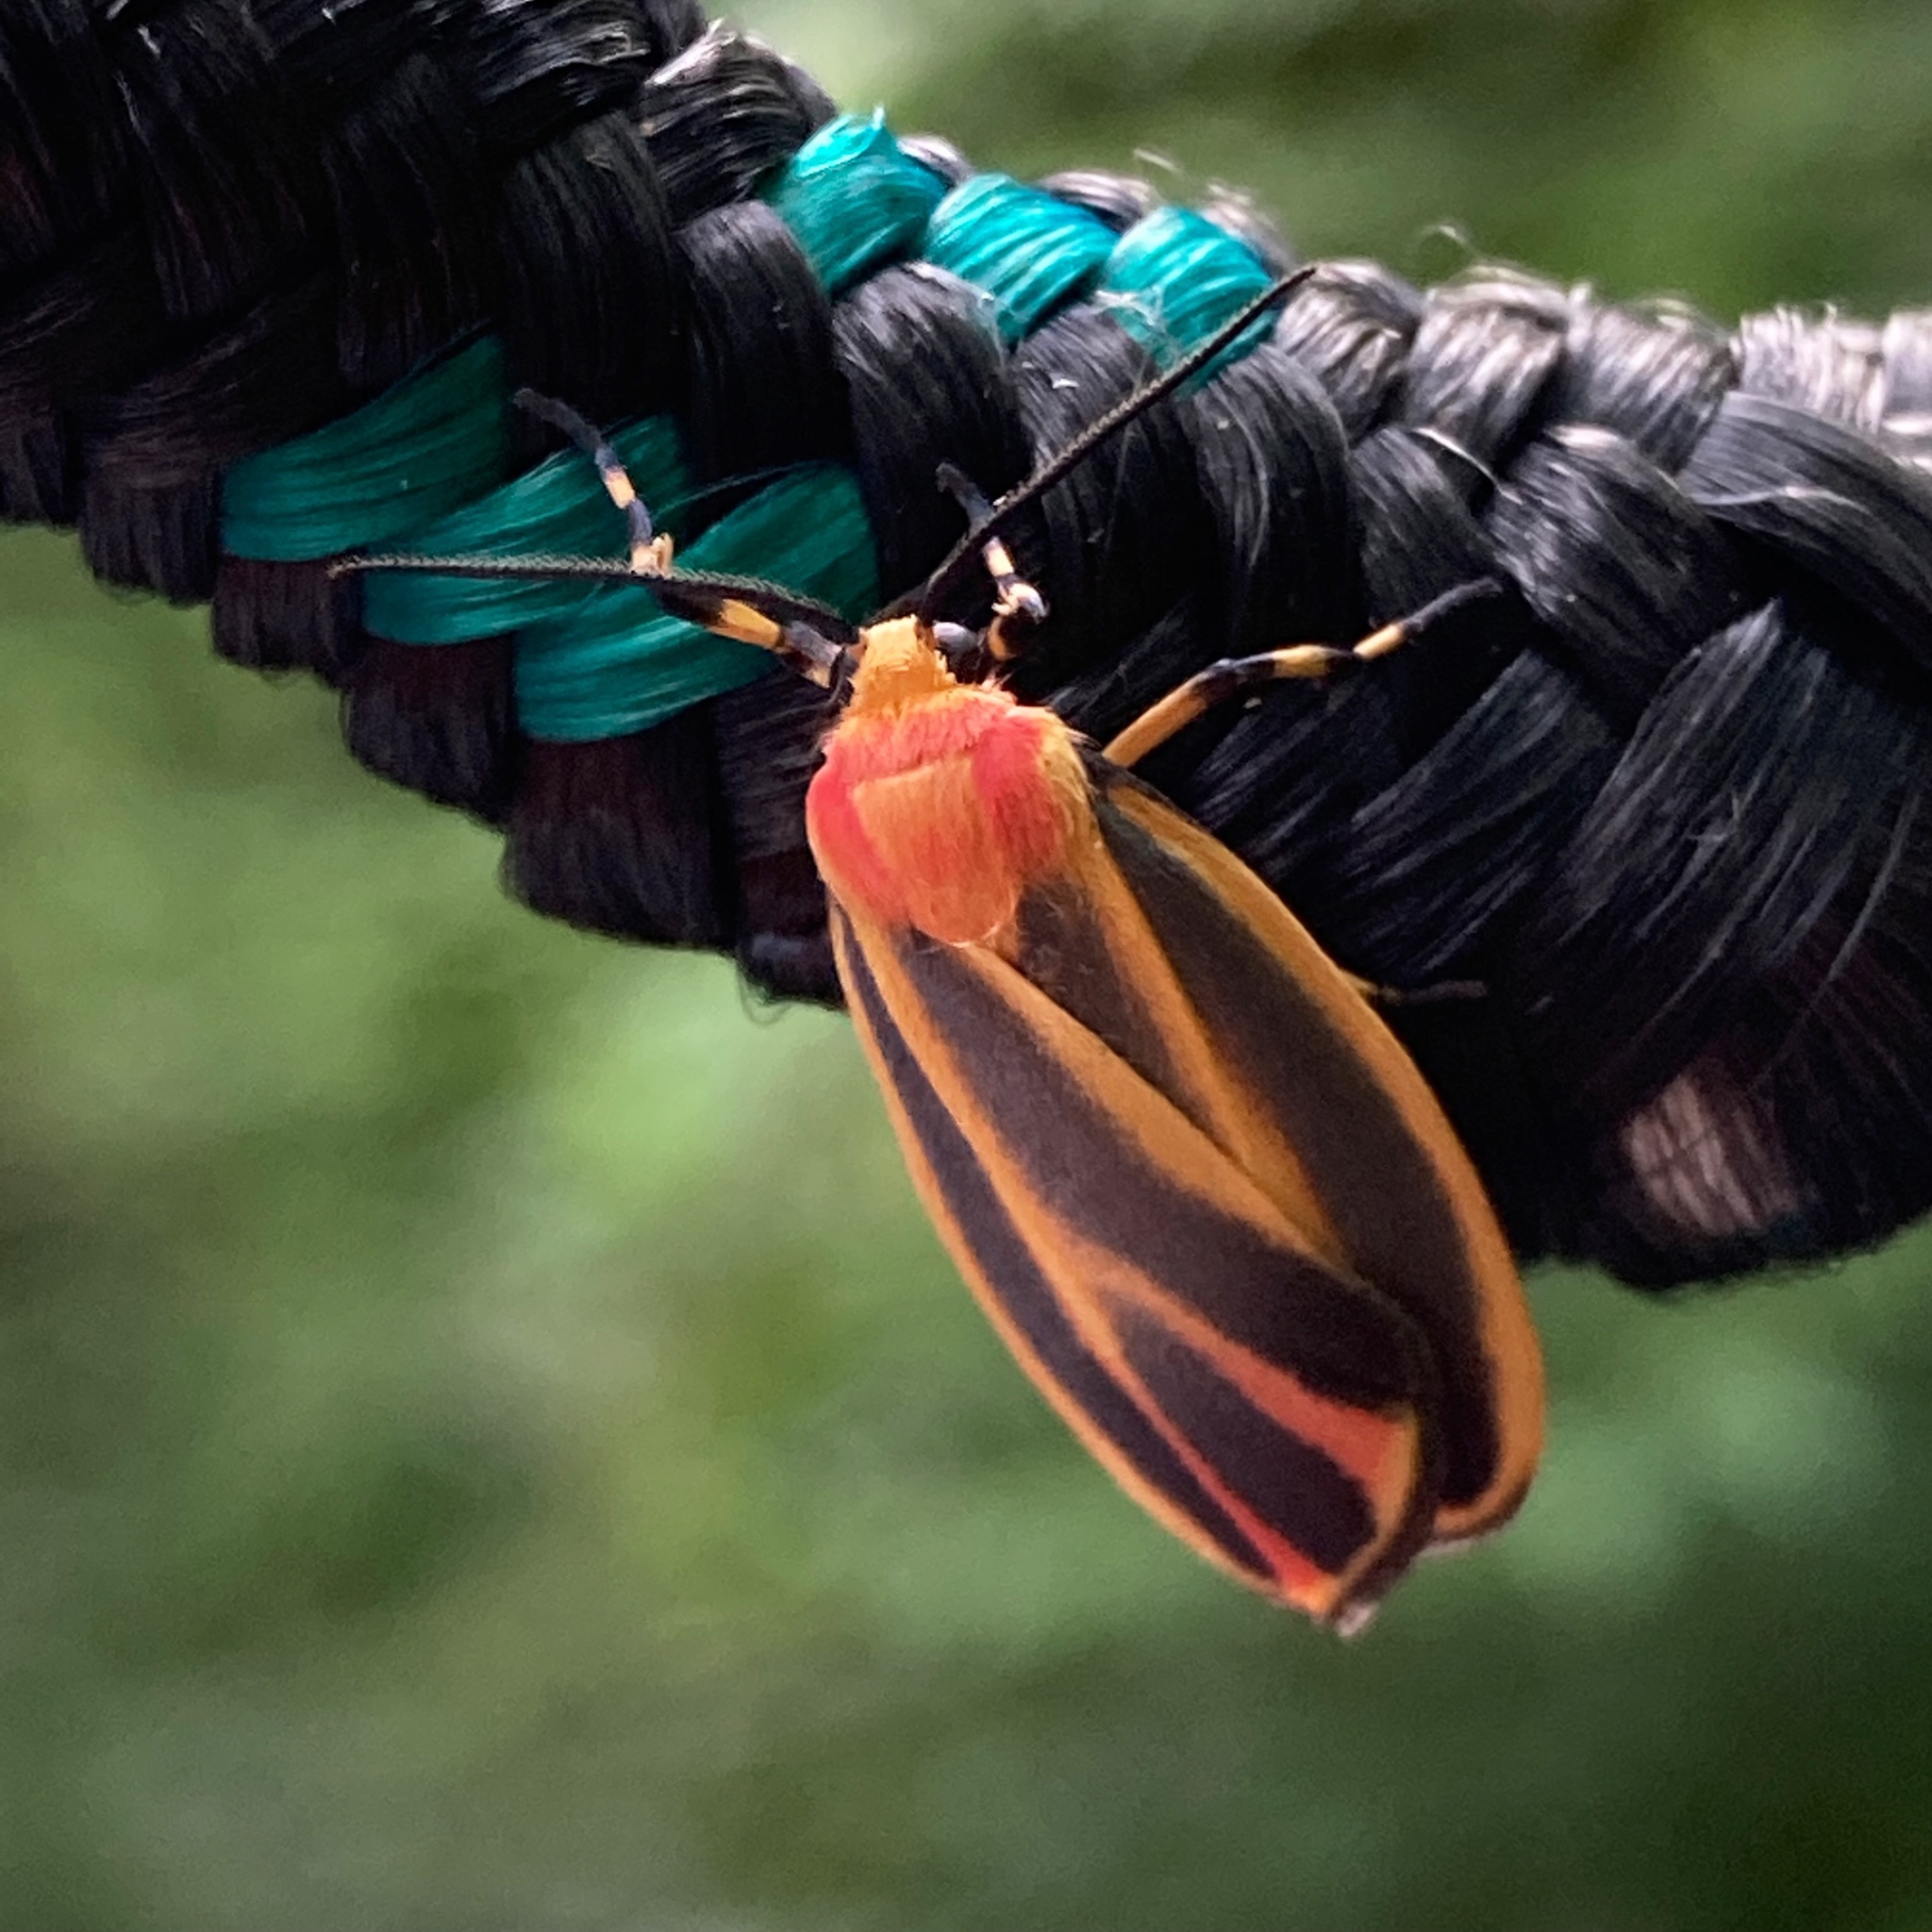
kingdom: Animalia
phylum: Arthropoda
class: Insecta
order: Lepidoptera
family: Erebidae
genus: Hypoprepia
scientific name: Hypoprepia fucosa
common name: Painted lichen moth
